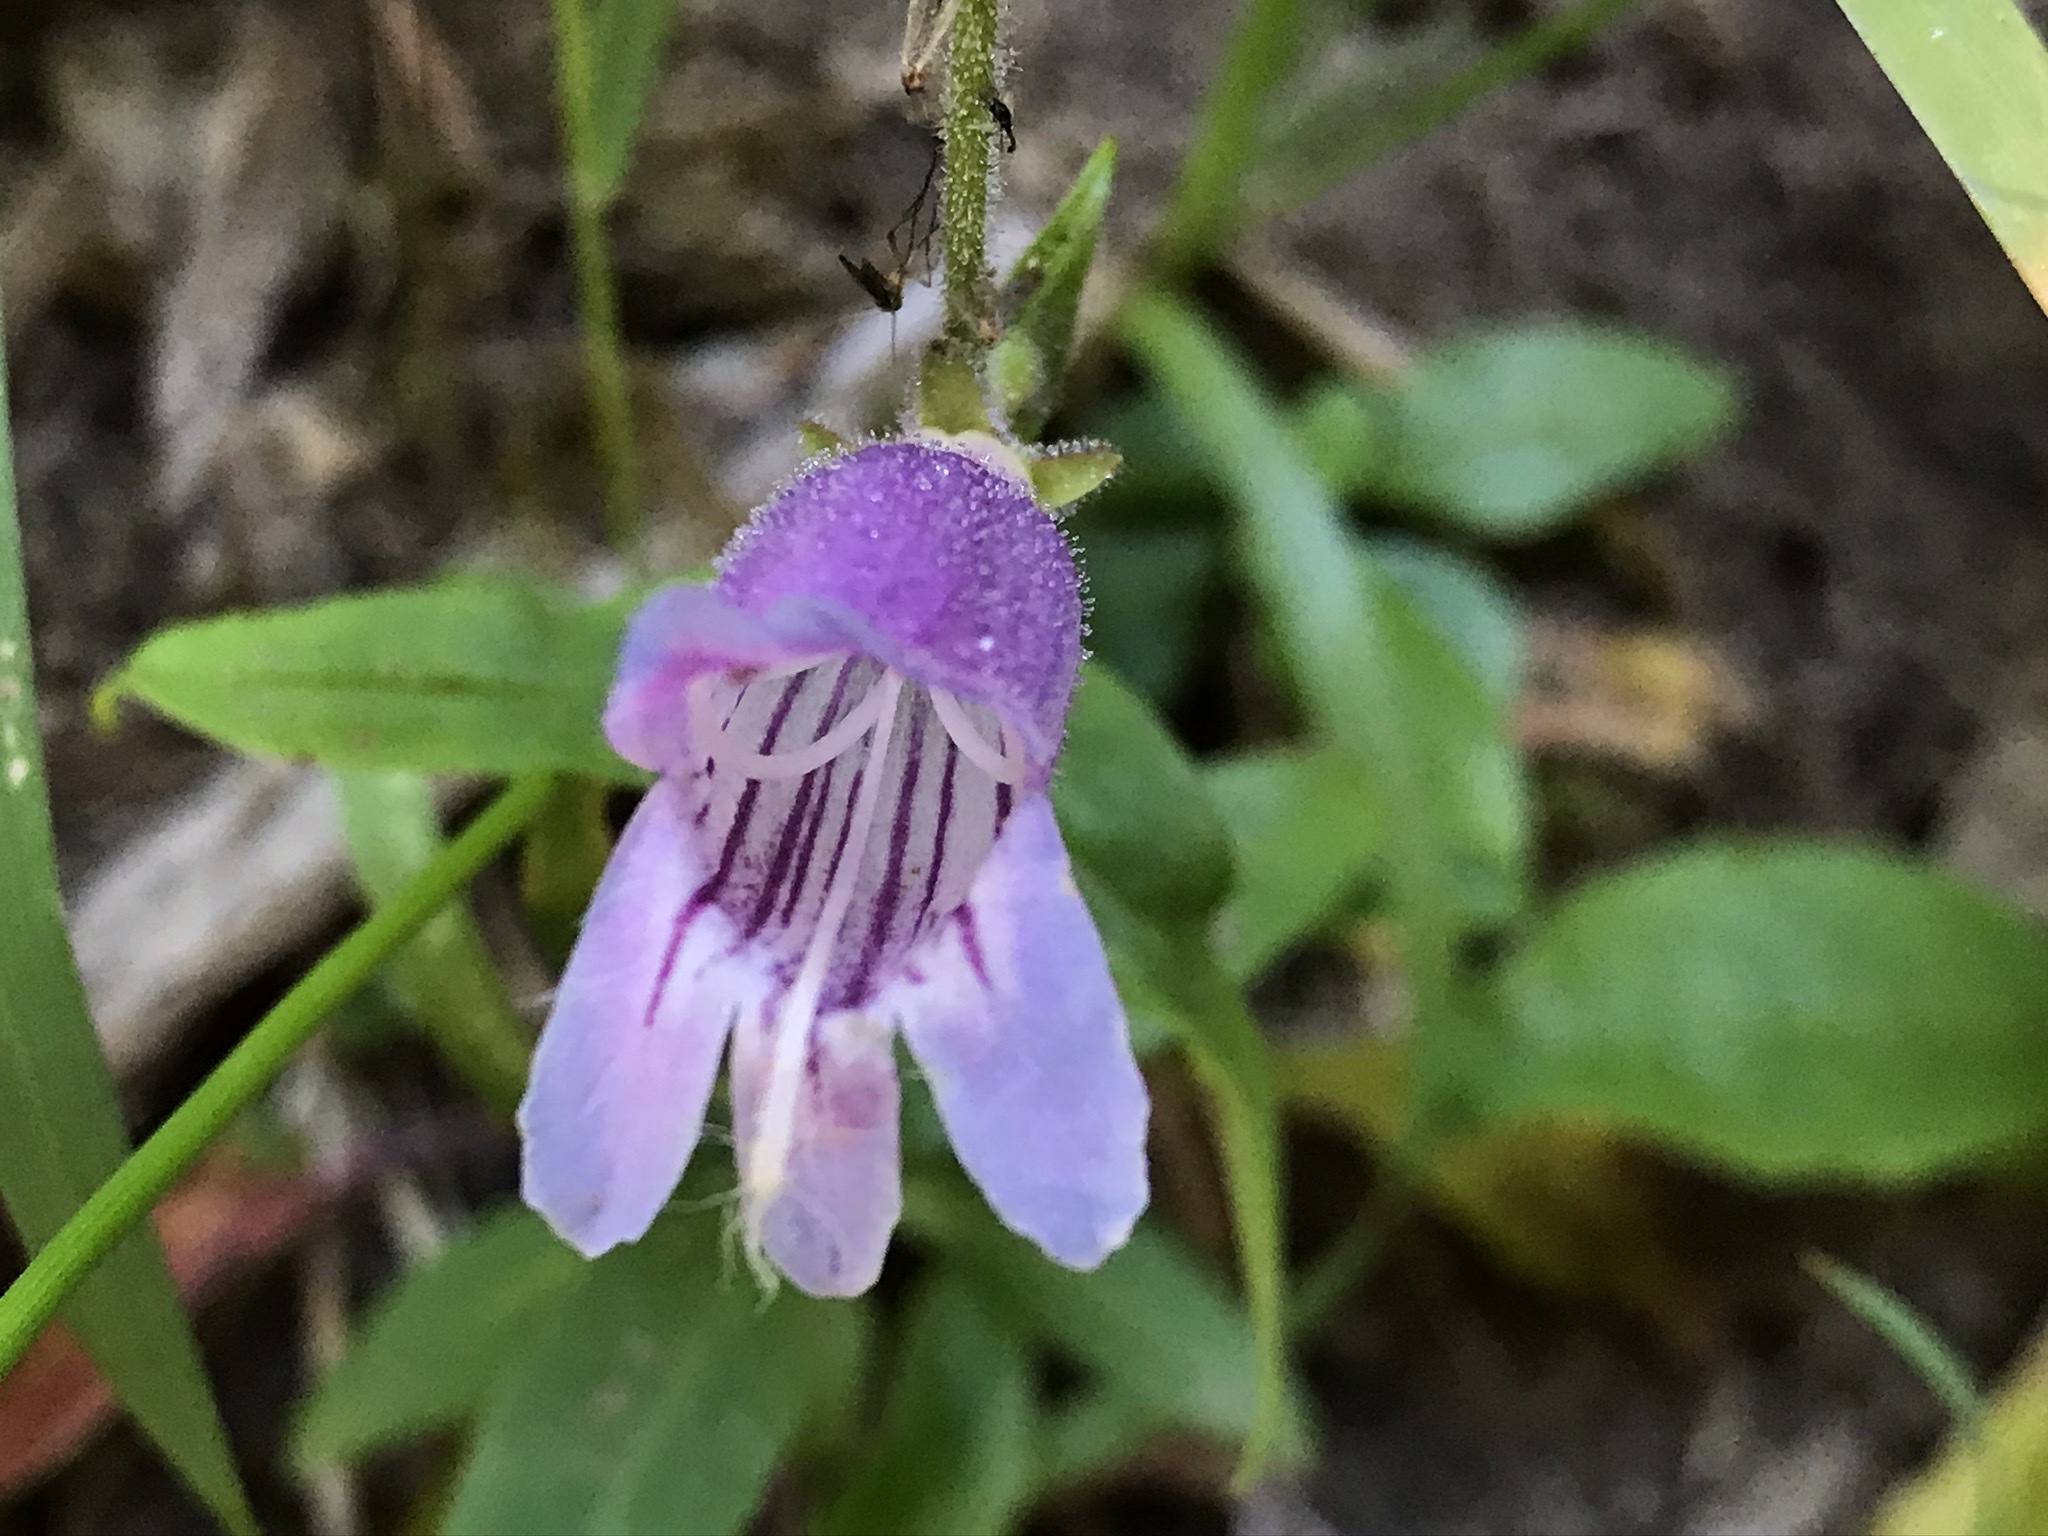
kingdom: Plantae
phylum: Tracheophyta
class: Magnoliopsida
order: Lamiales
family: Plantaginaceae
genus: Penstemon
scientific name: Penstemon rattanii
